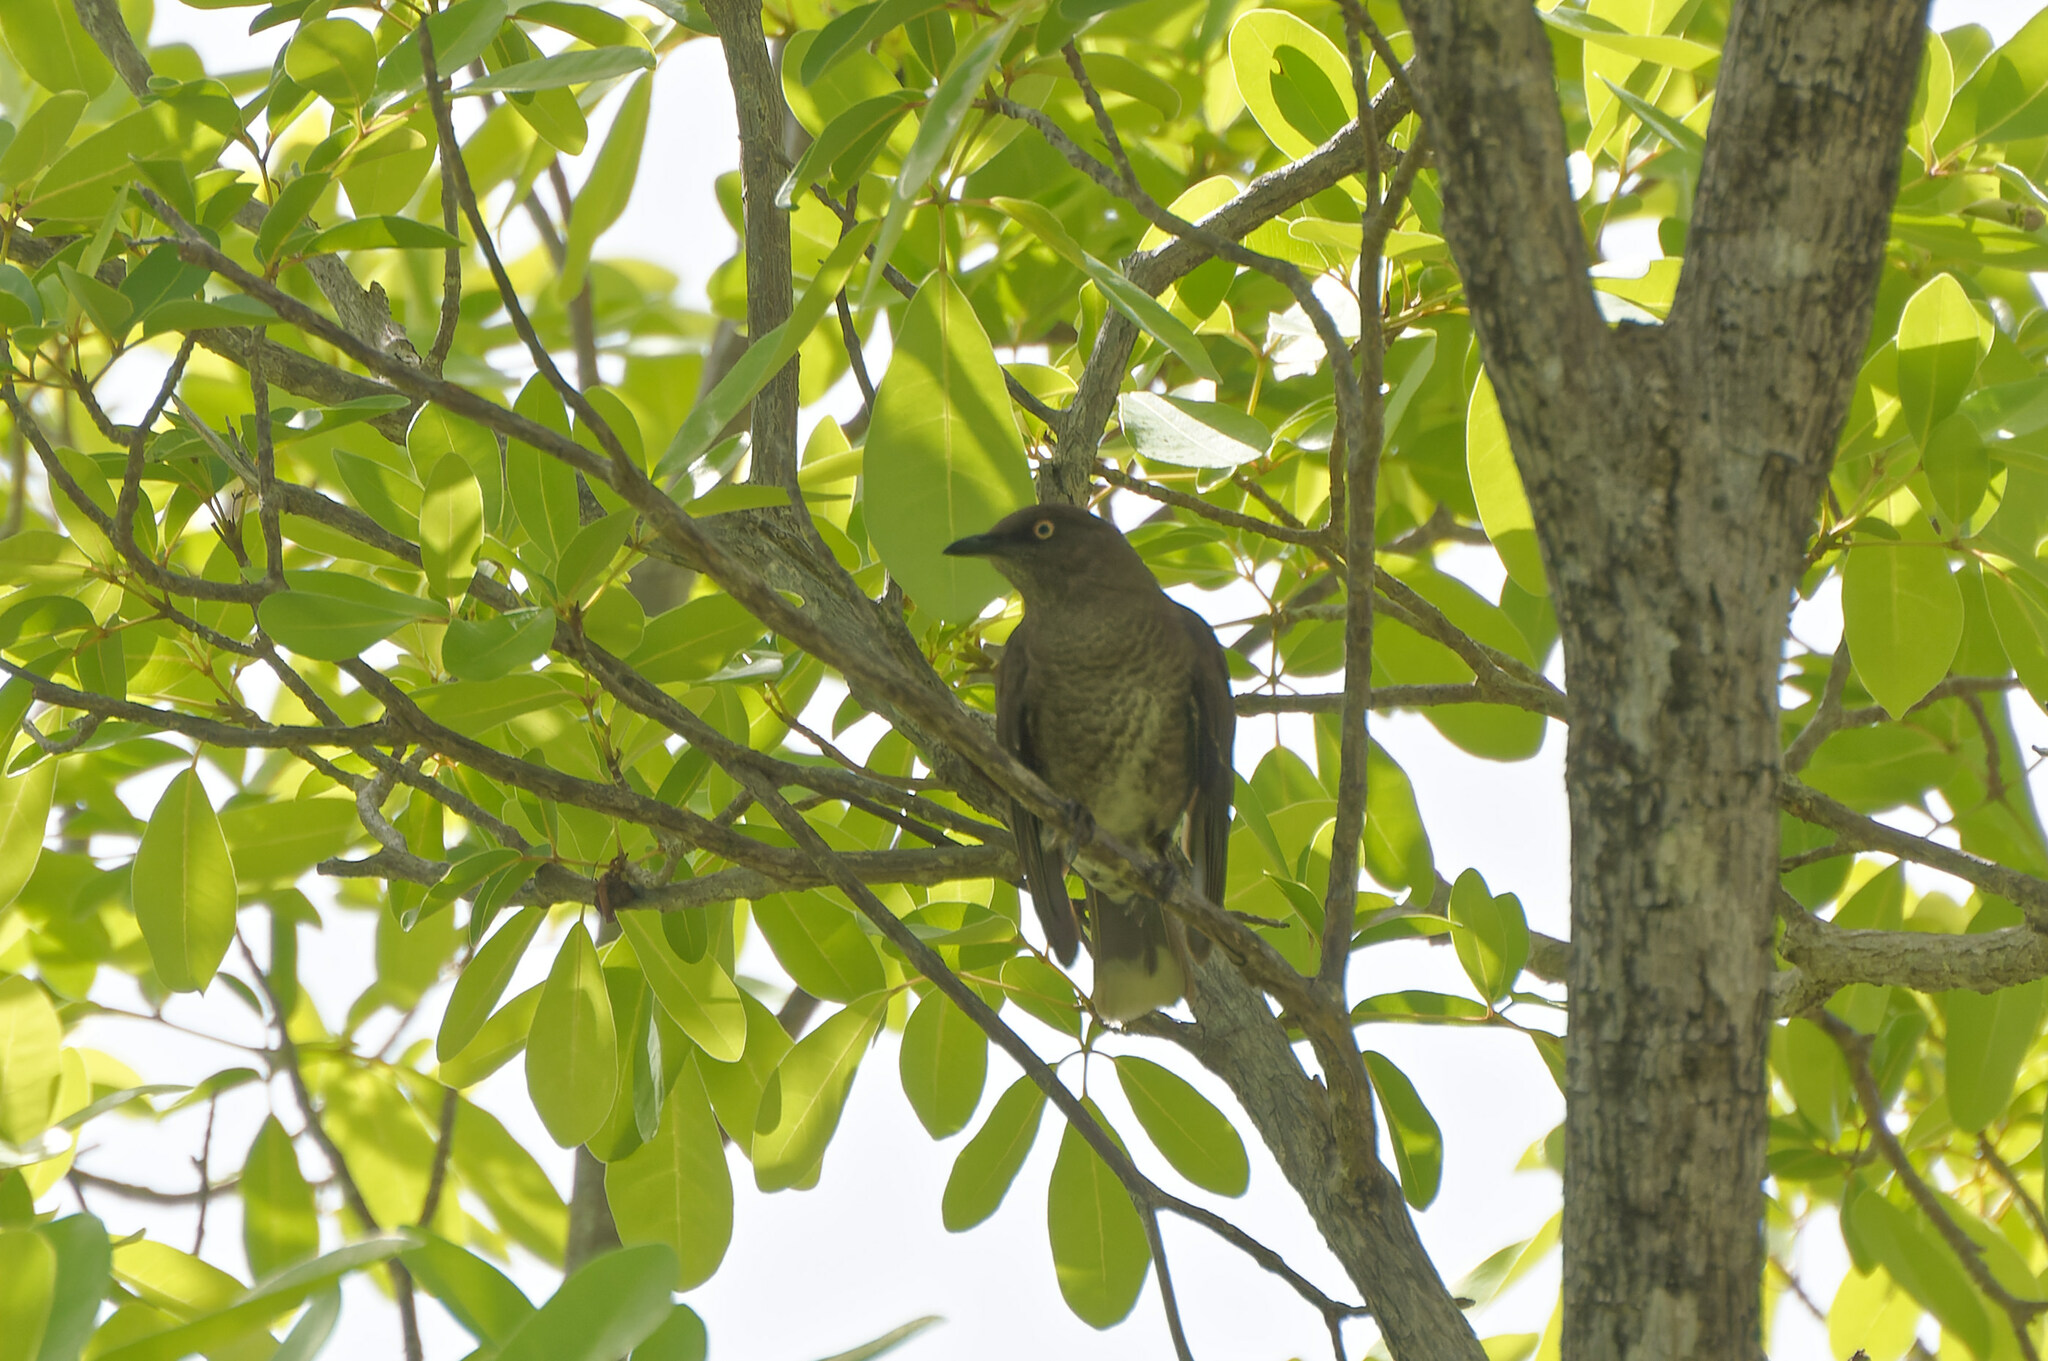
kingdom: Animalia
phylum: Chordata
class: Aves
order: Passeriformes
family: Mimidae
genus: Allenia
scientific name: Allenia fusca
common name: Scaly-breasted thrasher
